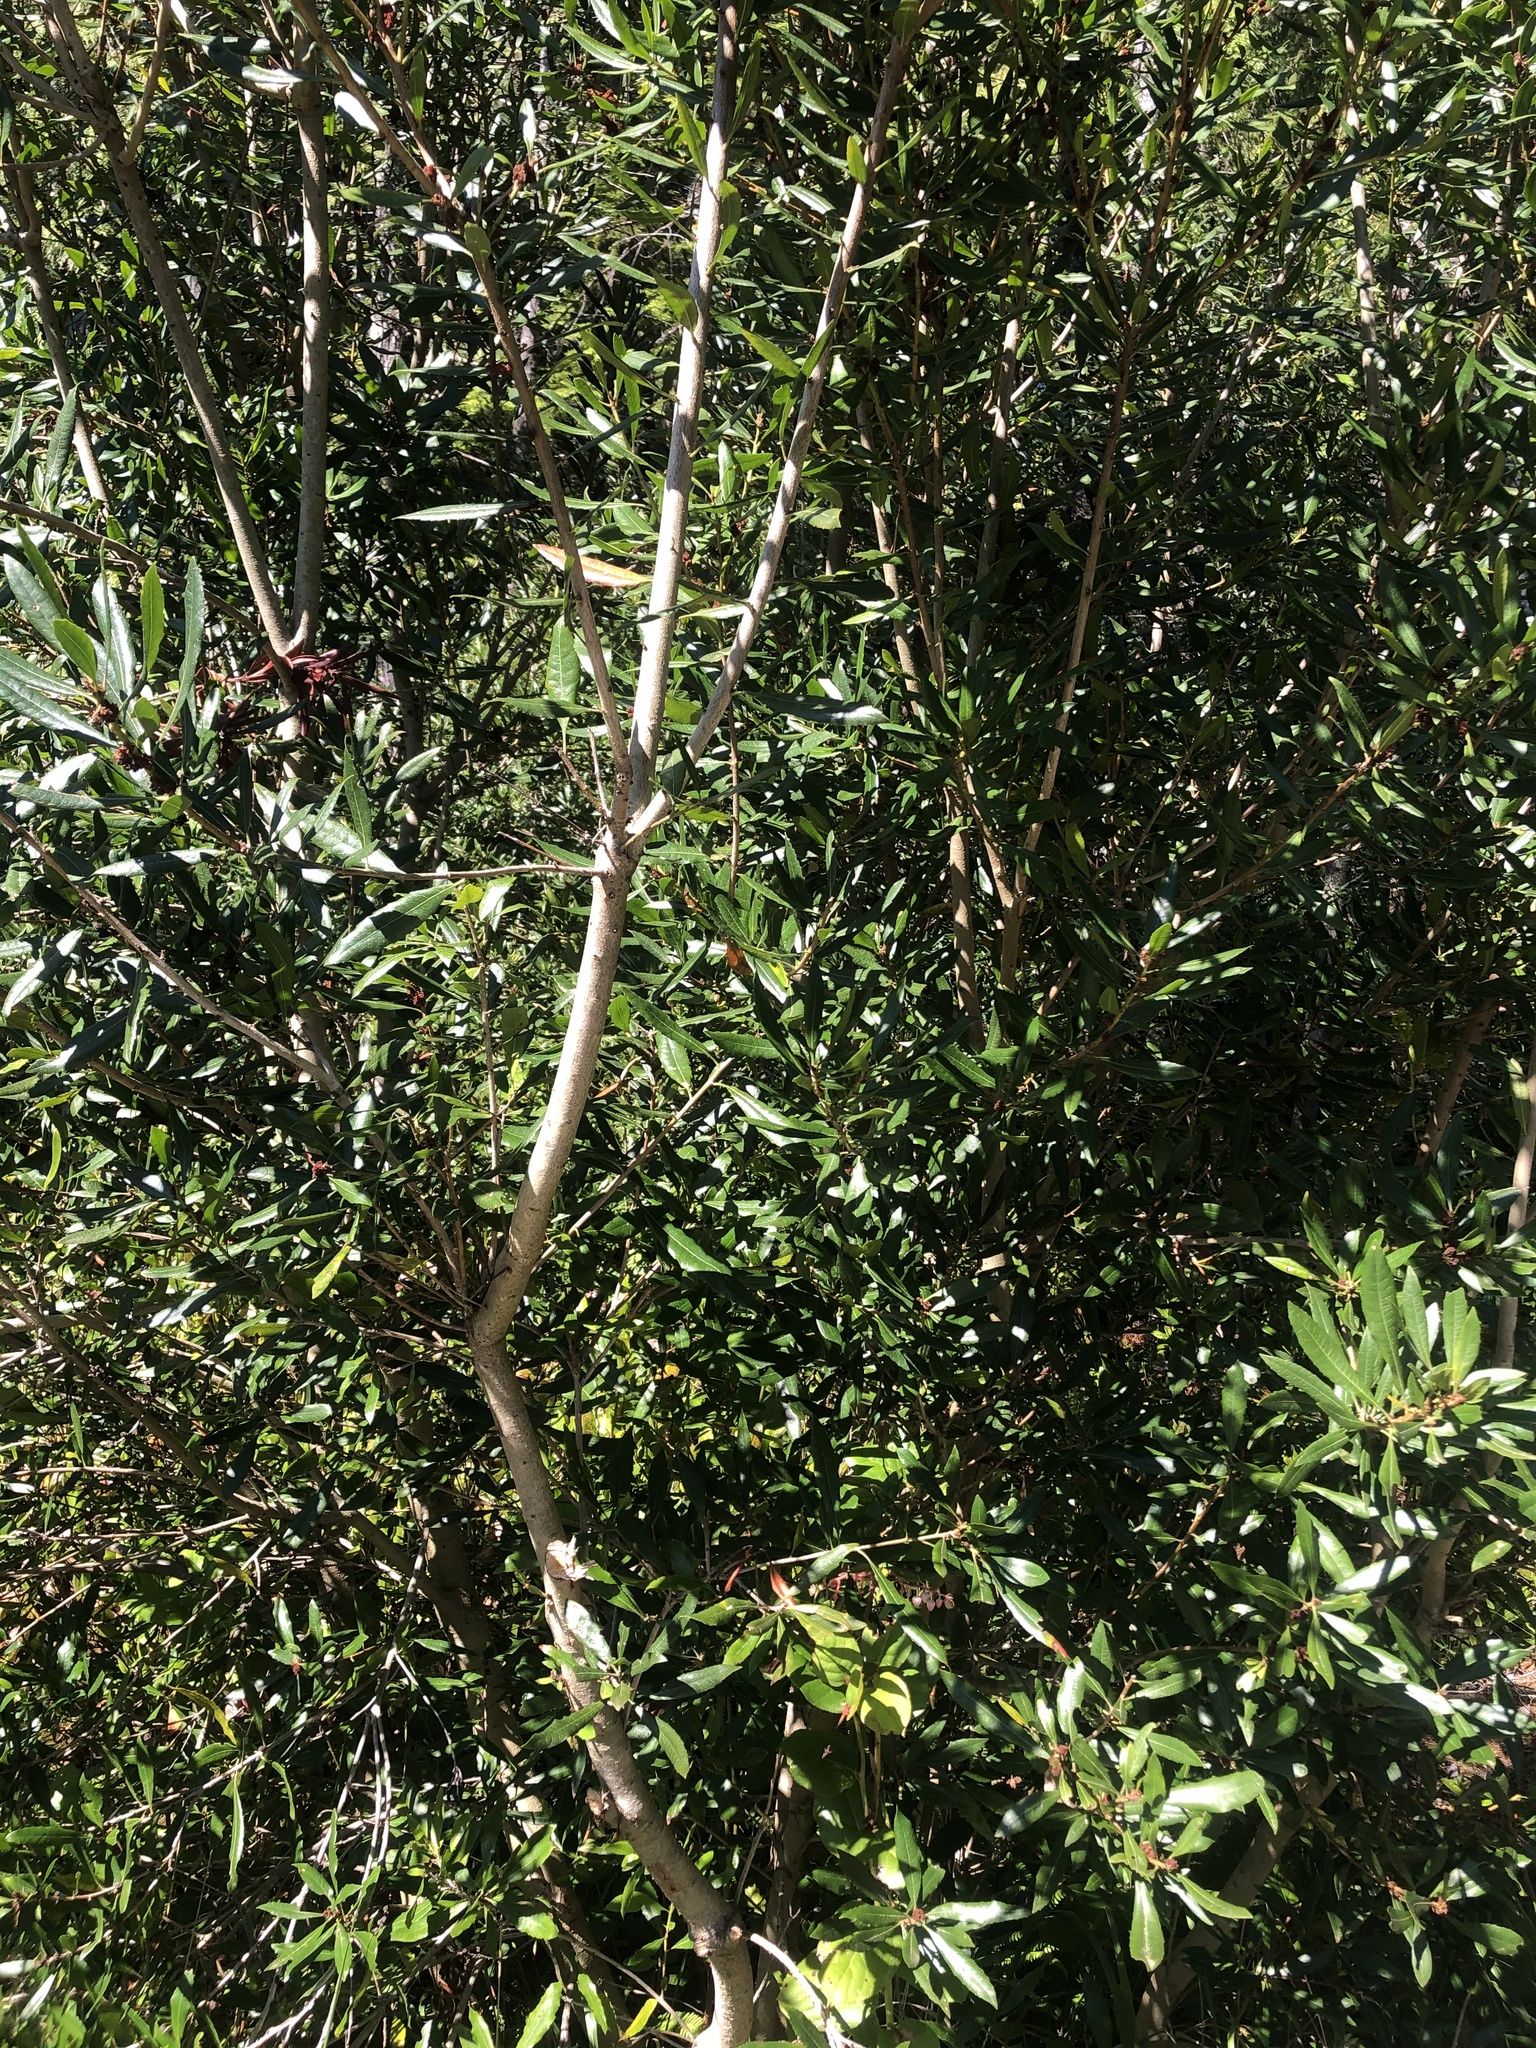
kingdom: Plantae
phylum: Tracheophyta
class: Magnoliopsida
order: Fagales
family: Myricaceae
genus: Morella
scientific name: Morella californica
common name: California wax-myrtle
